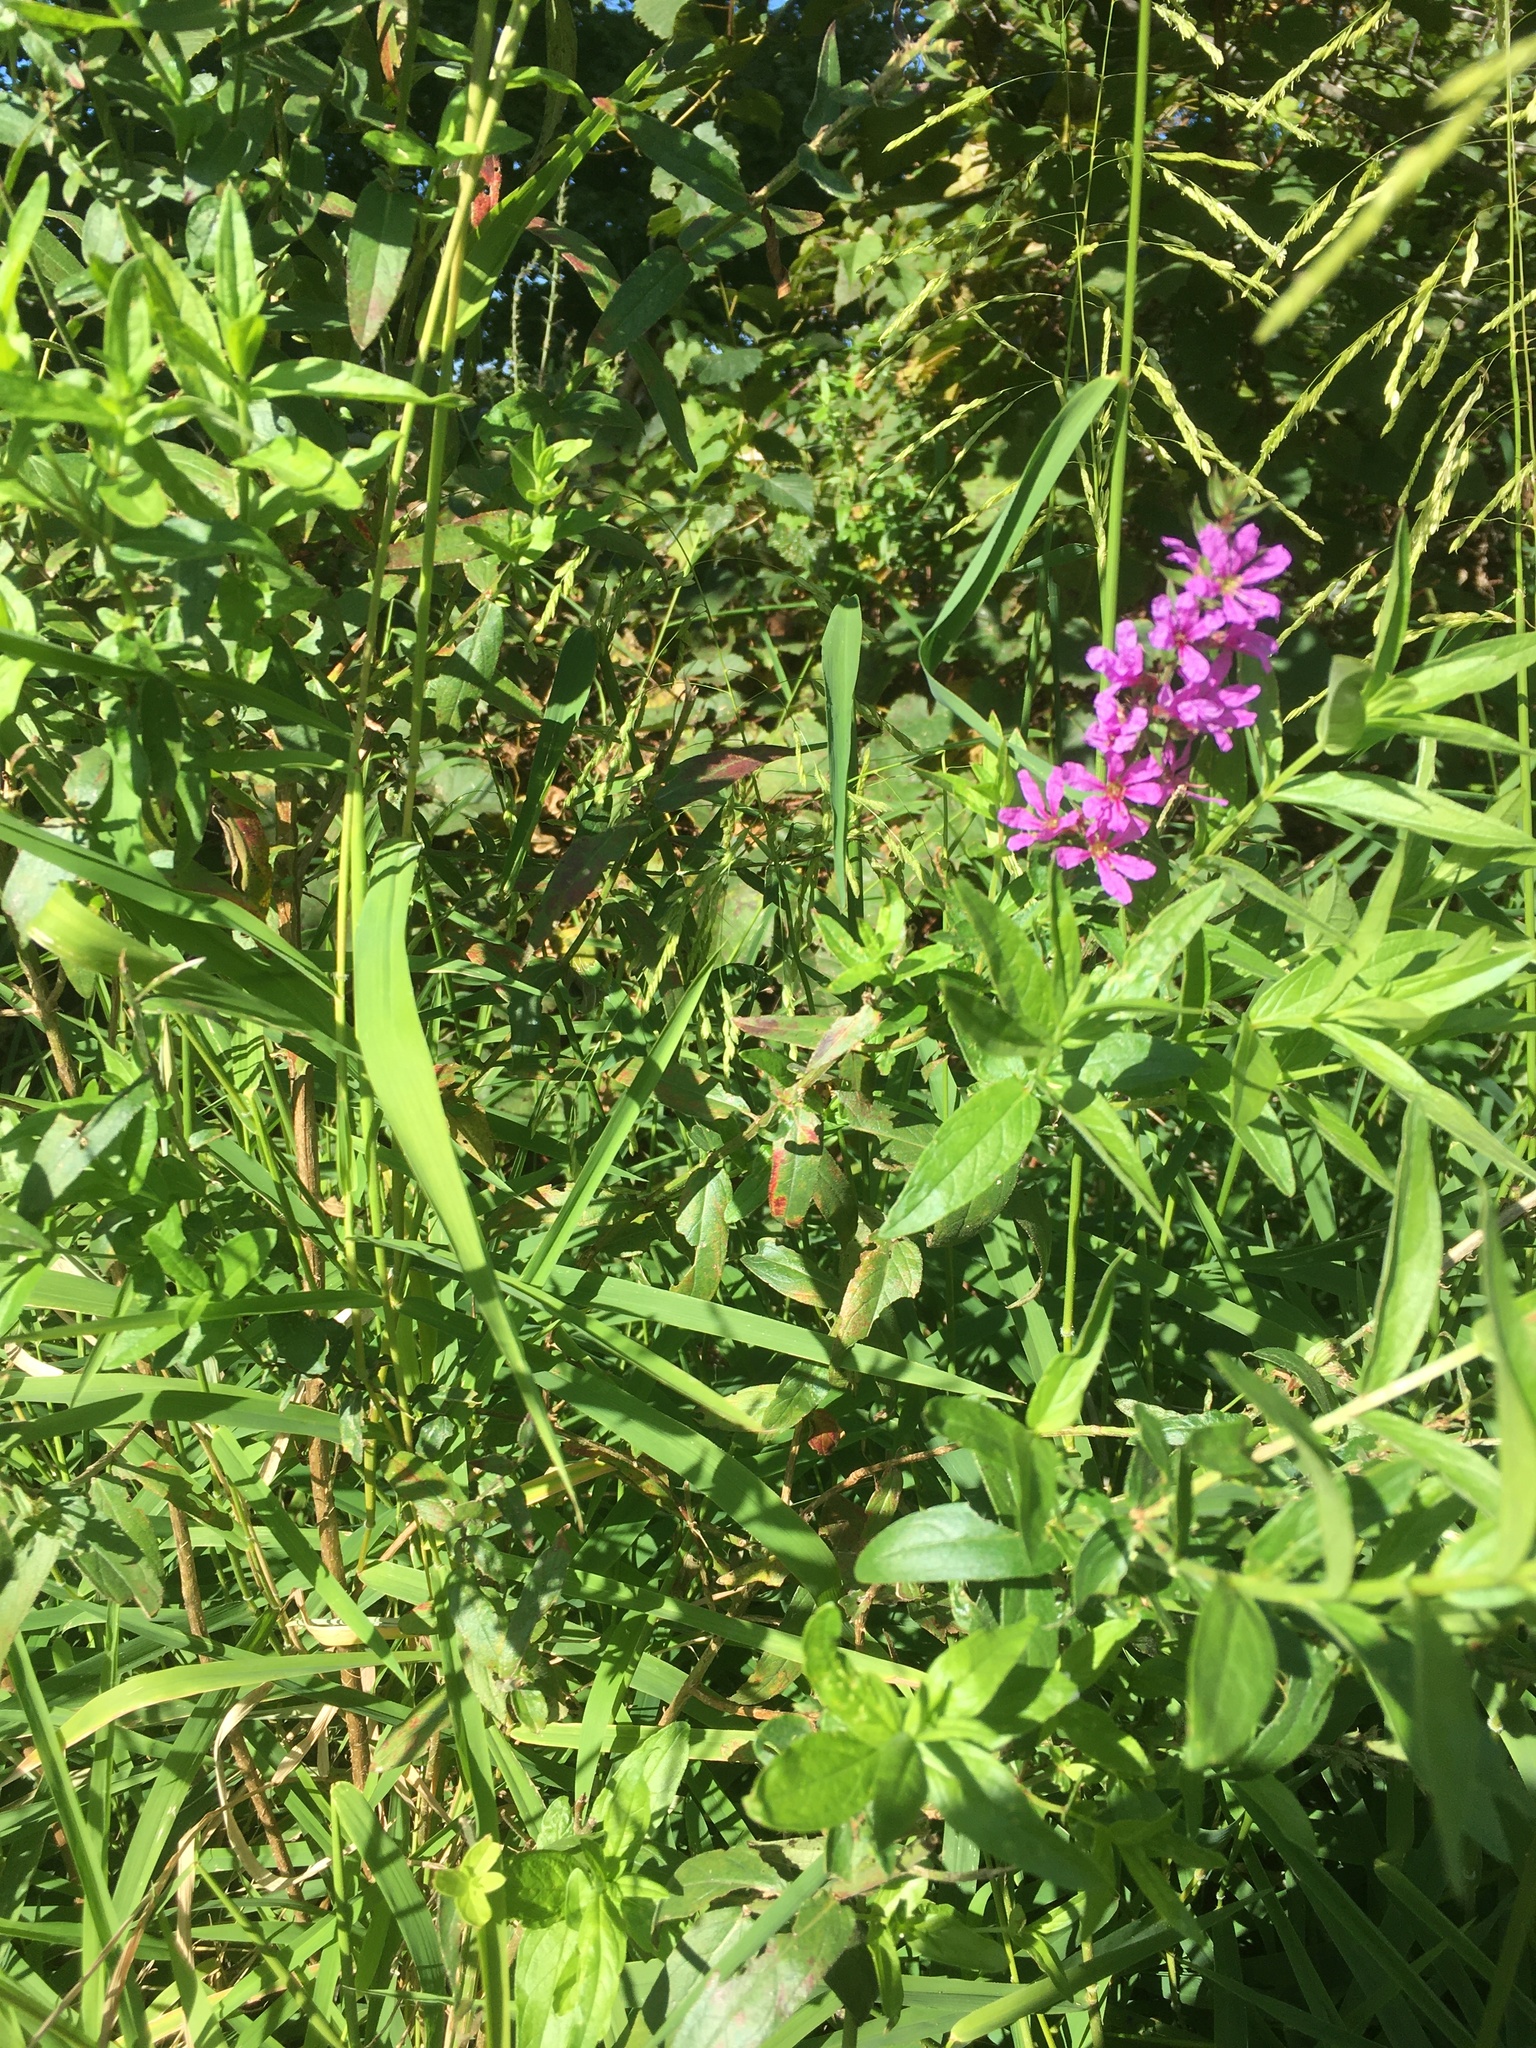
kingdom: Plantae
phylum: Tracheophyta
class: Magnoliopsida
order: Myrtales
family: Lythraceae
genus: Lythrum
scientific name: Lythrum salicaria
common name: Purple loosestrife
